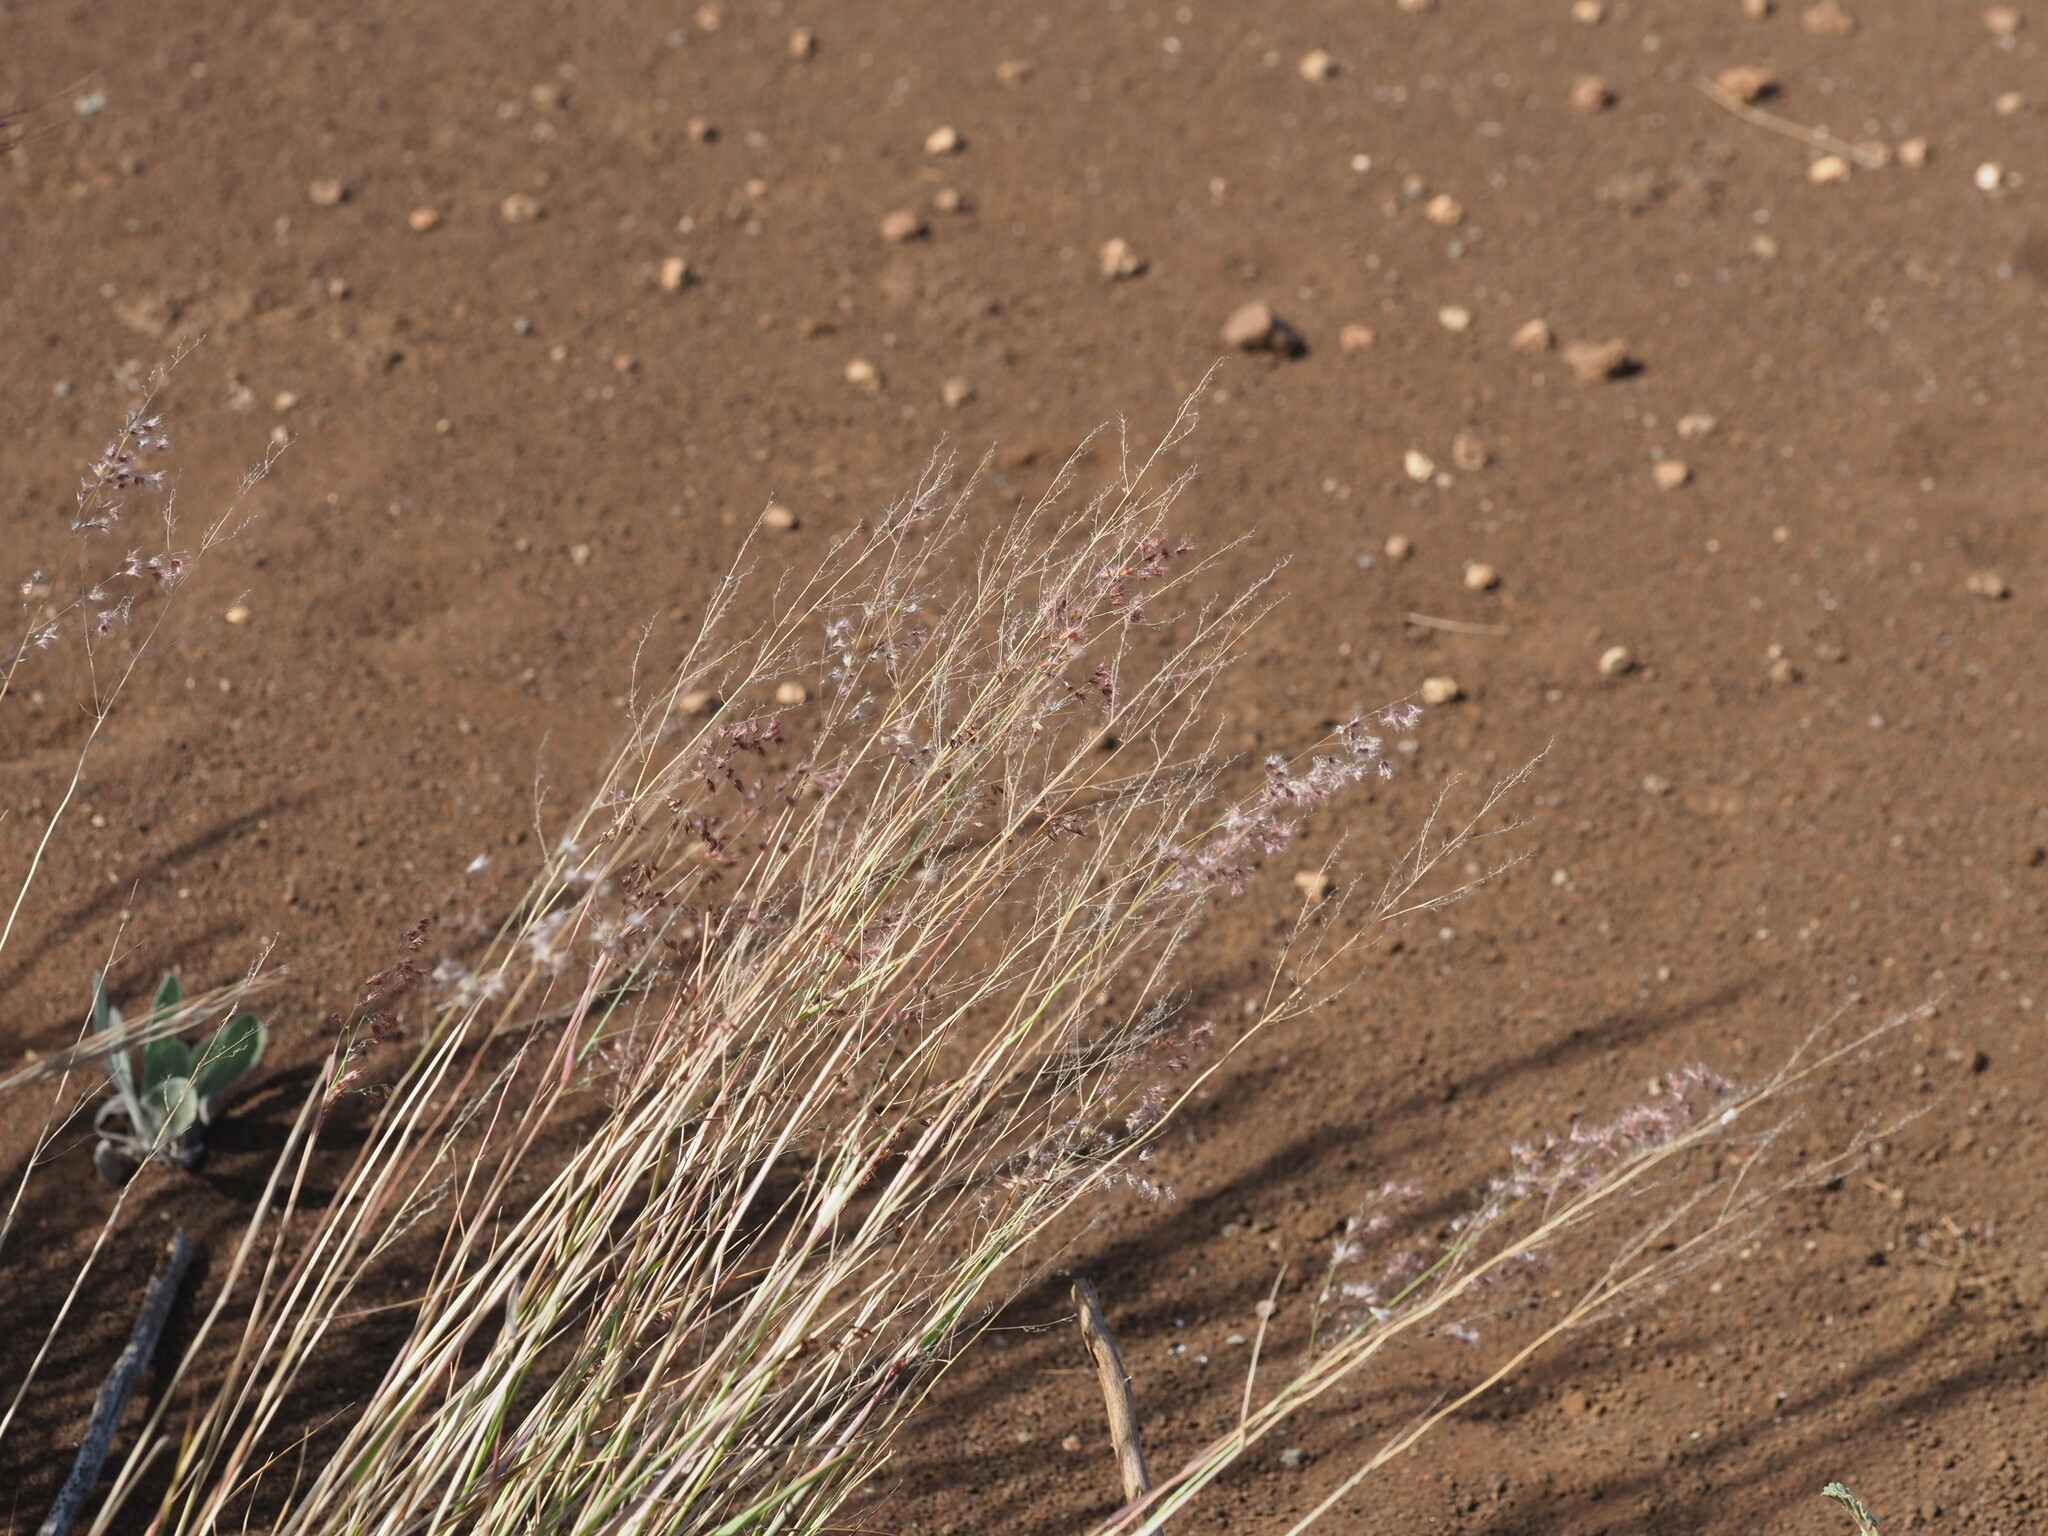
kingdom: Plantae
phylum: Tracheophyta
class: Liliopsida
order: Poales
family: Poaceae
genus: Melinis
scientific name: Melinis repens
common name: Rose natal grass
